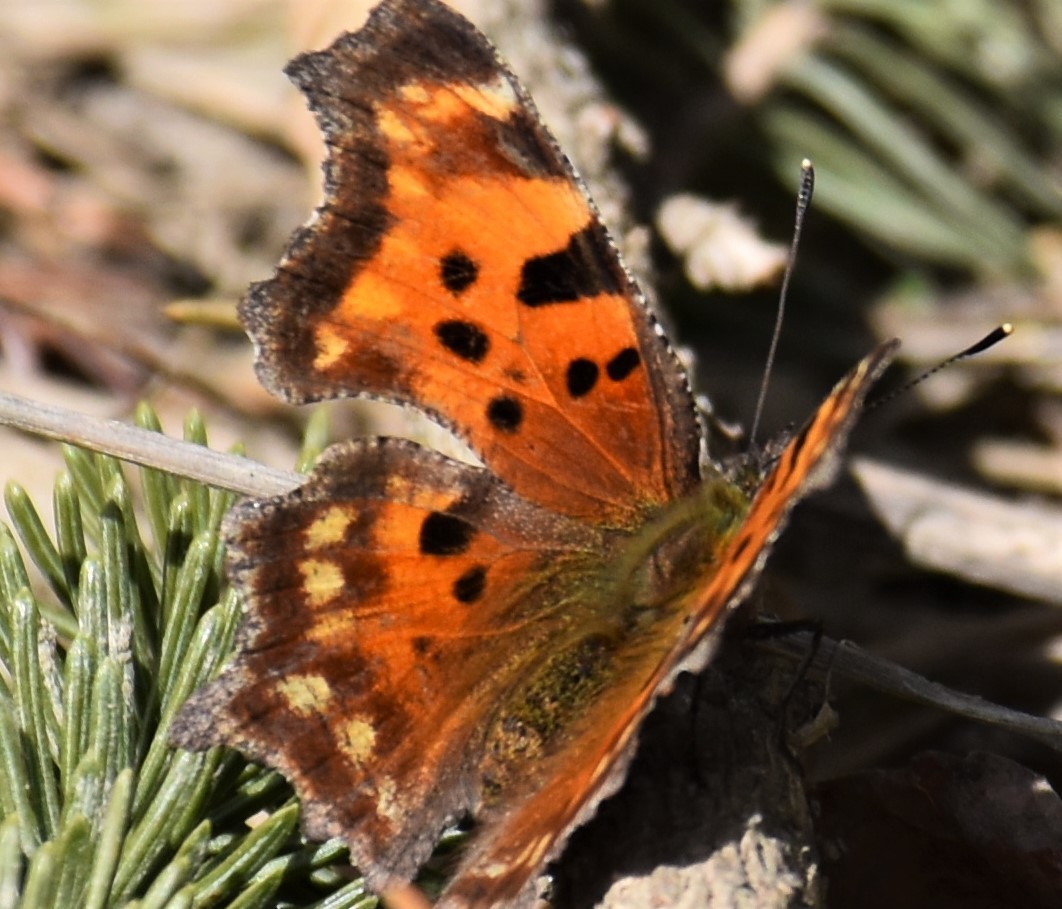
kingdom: Animalia
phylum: Arthropoda
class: Insecta
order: Lepidoptera
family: Nymphalidae
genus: Polygonia
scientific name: Polygonia faunus
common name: Green comma
